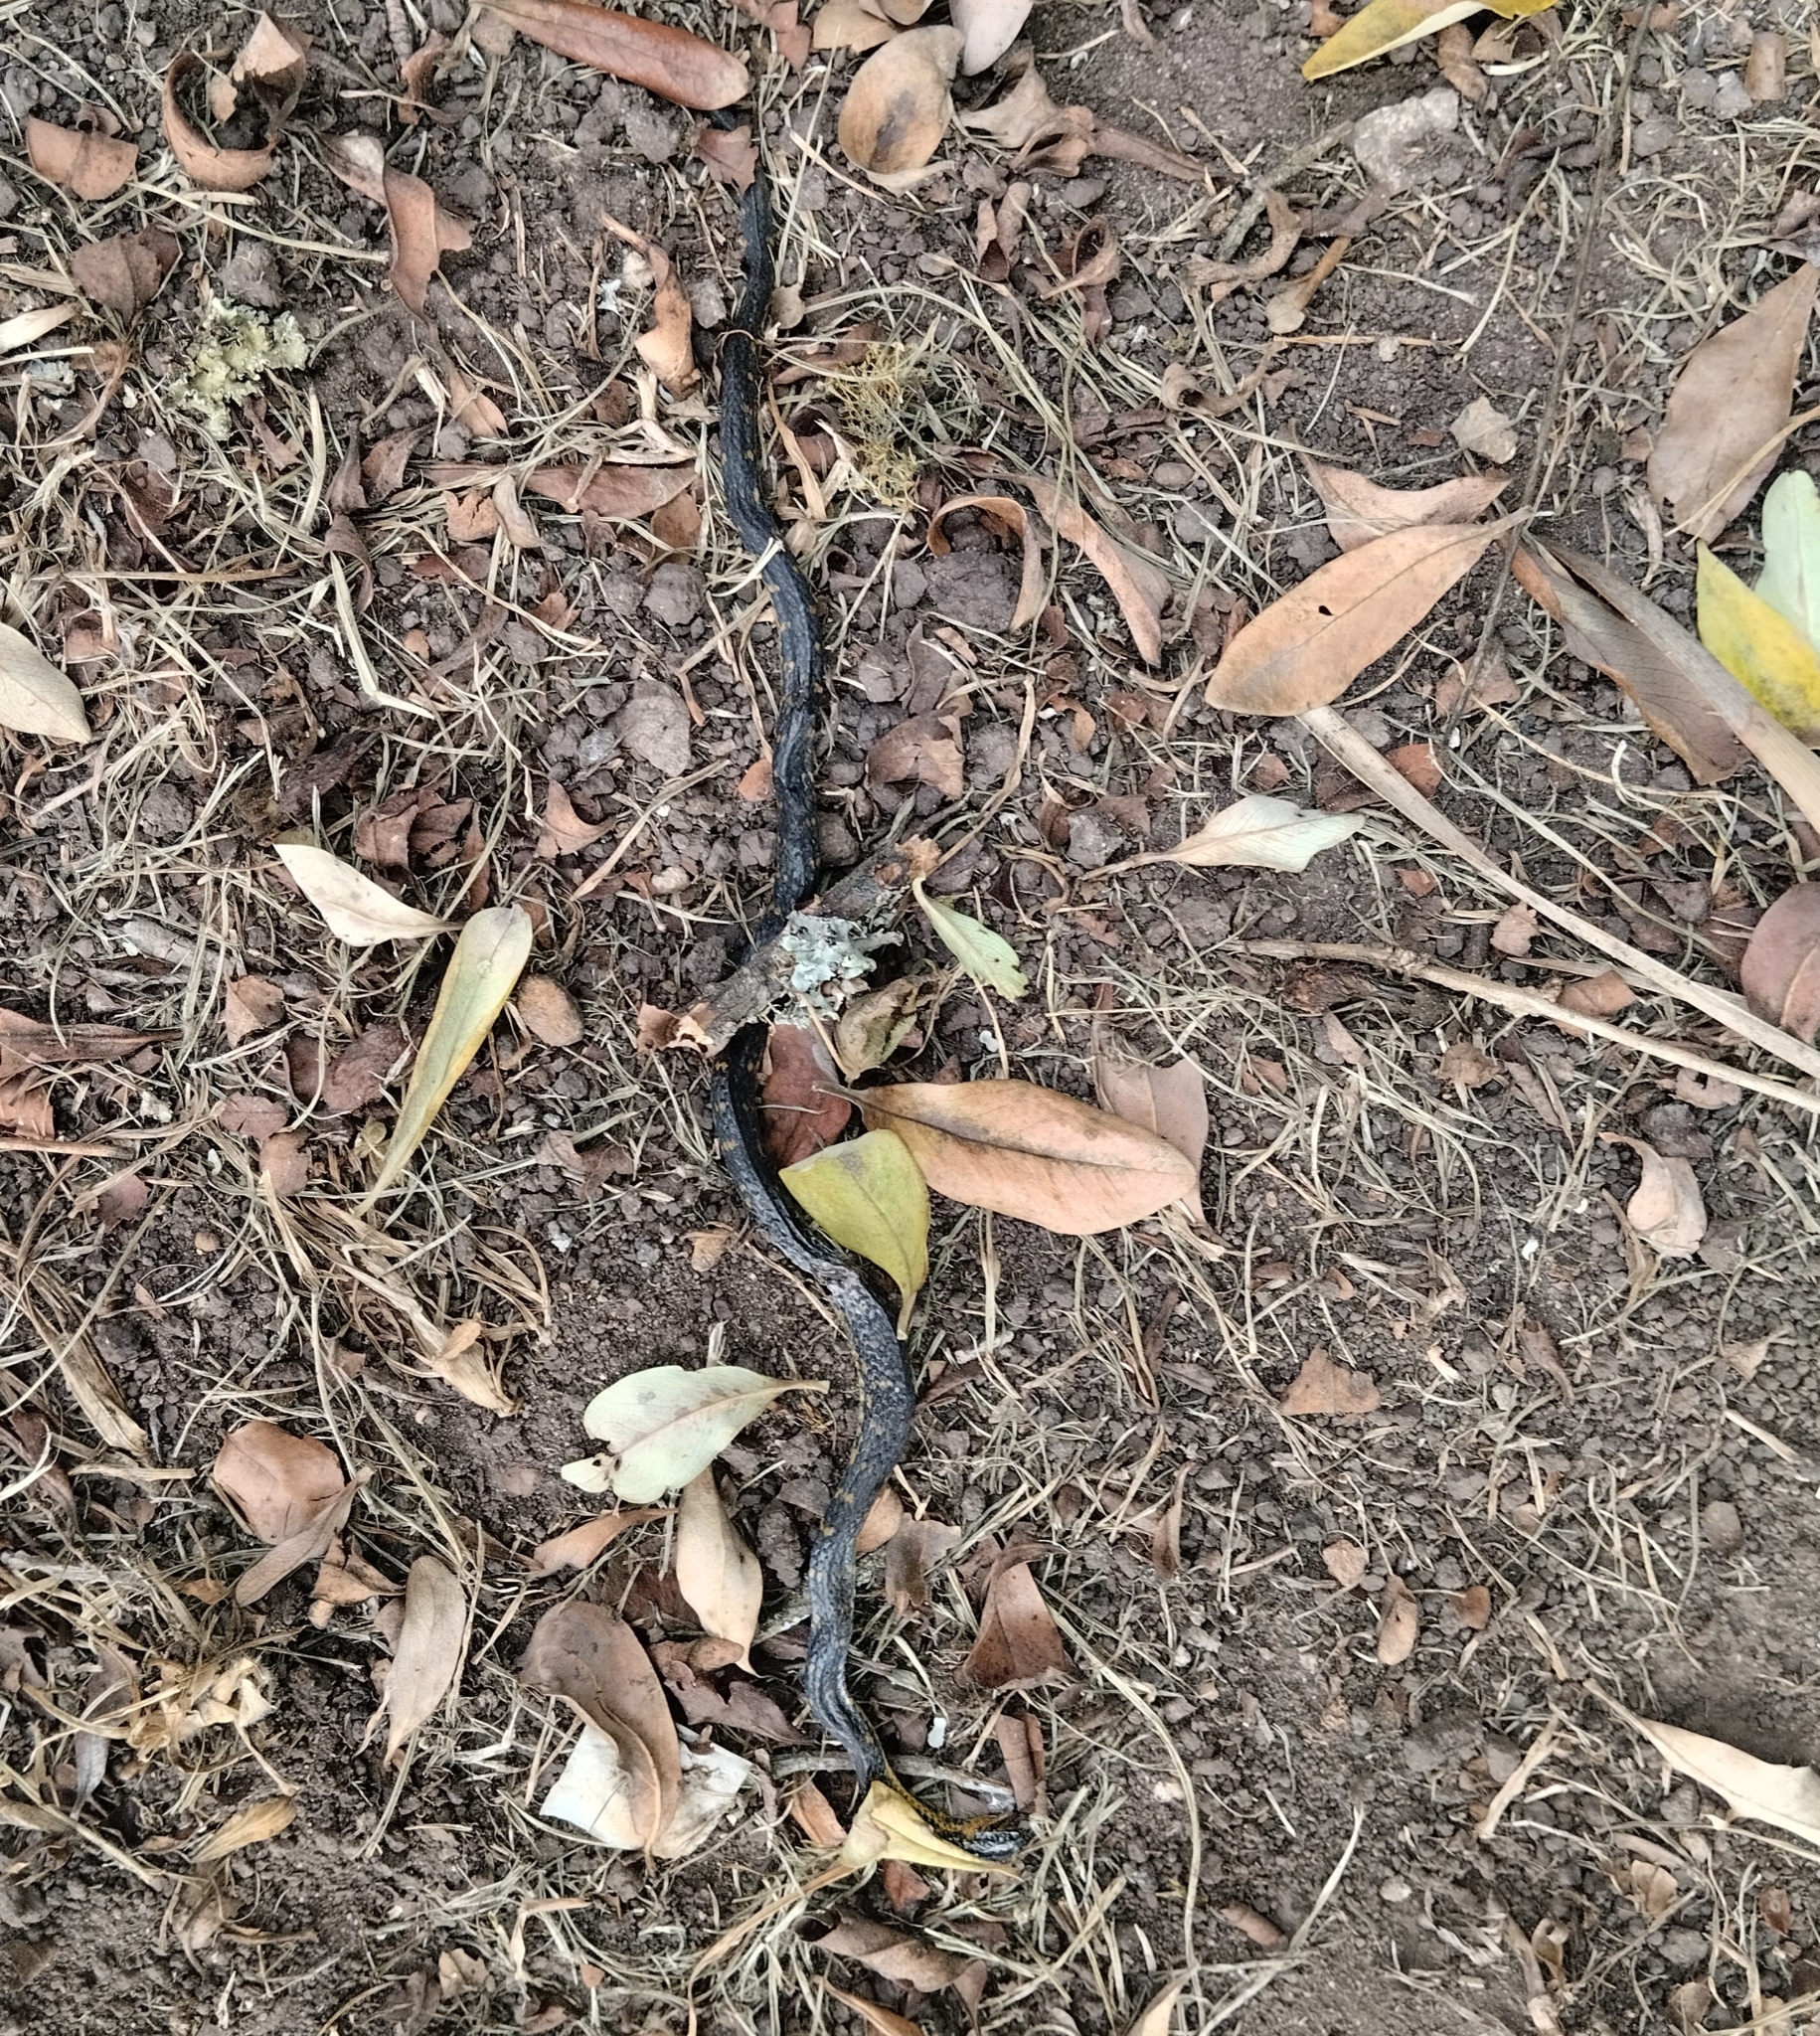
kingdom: Animalia
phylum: Chordata
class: Squamata
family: Colubridae
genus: Atractus
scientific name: Atractus crassicaudatus
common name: Thickhead ground snake
